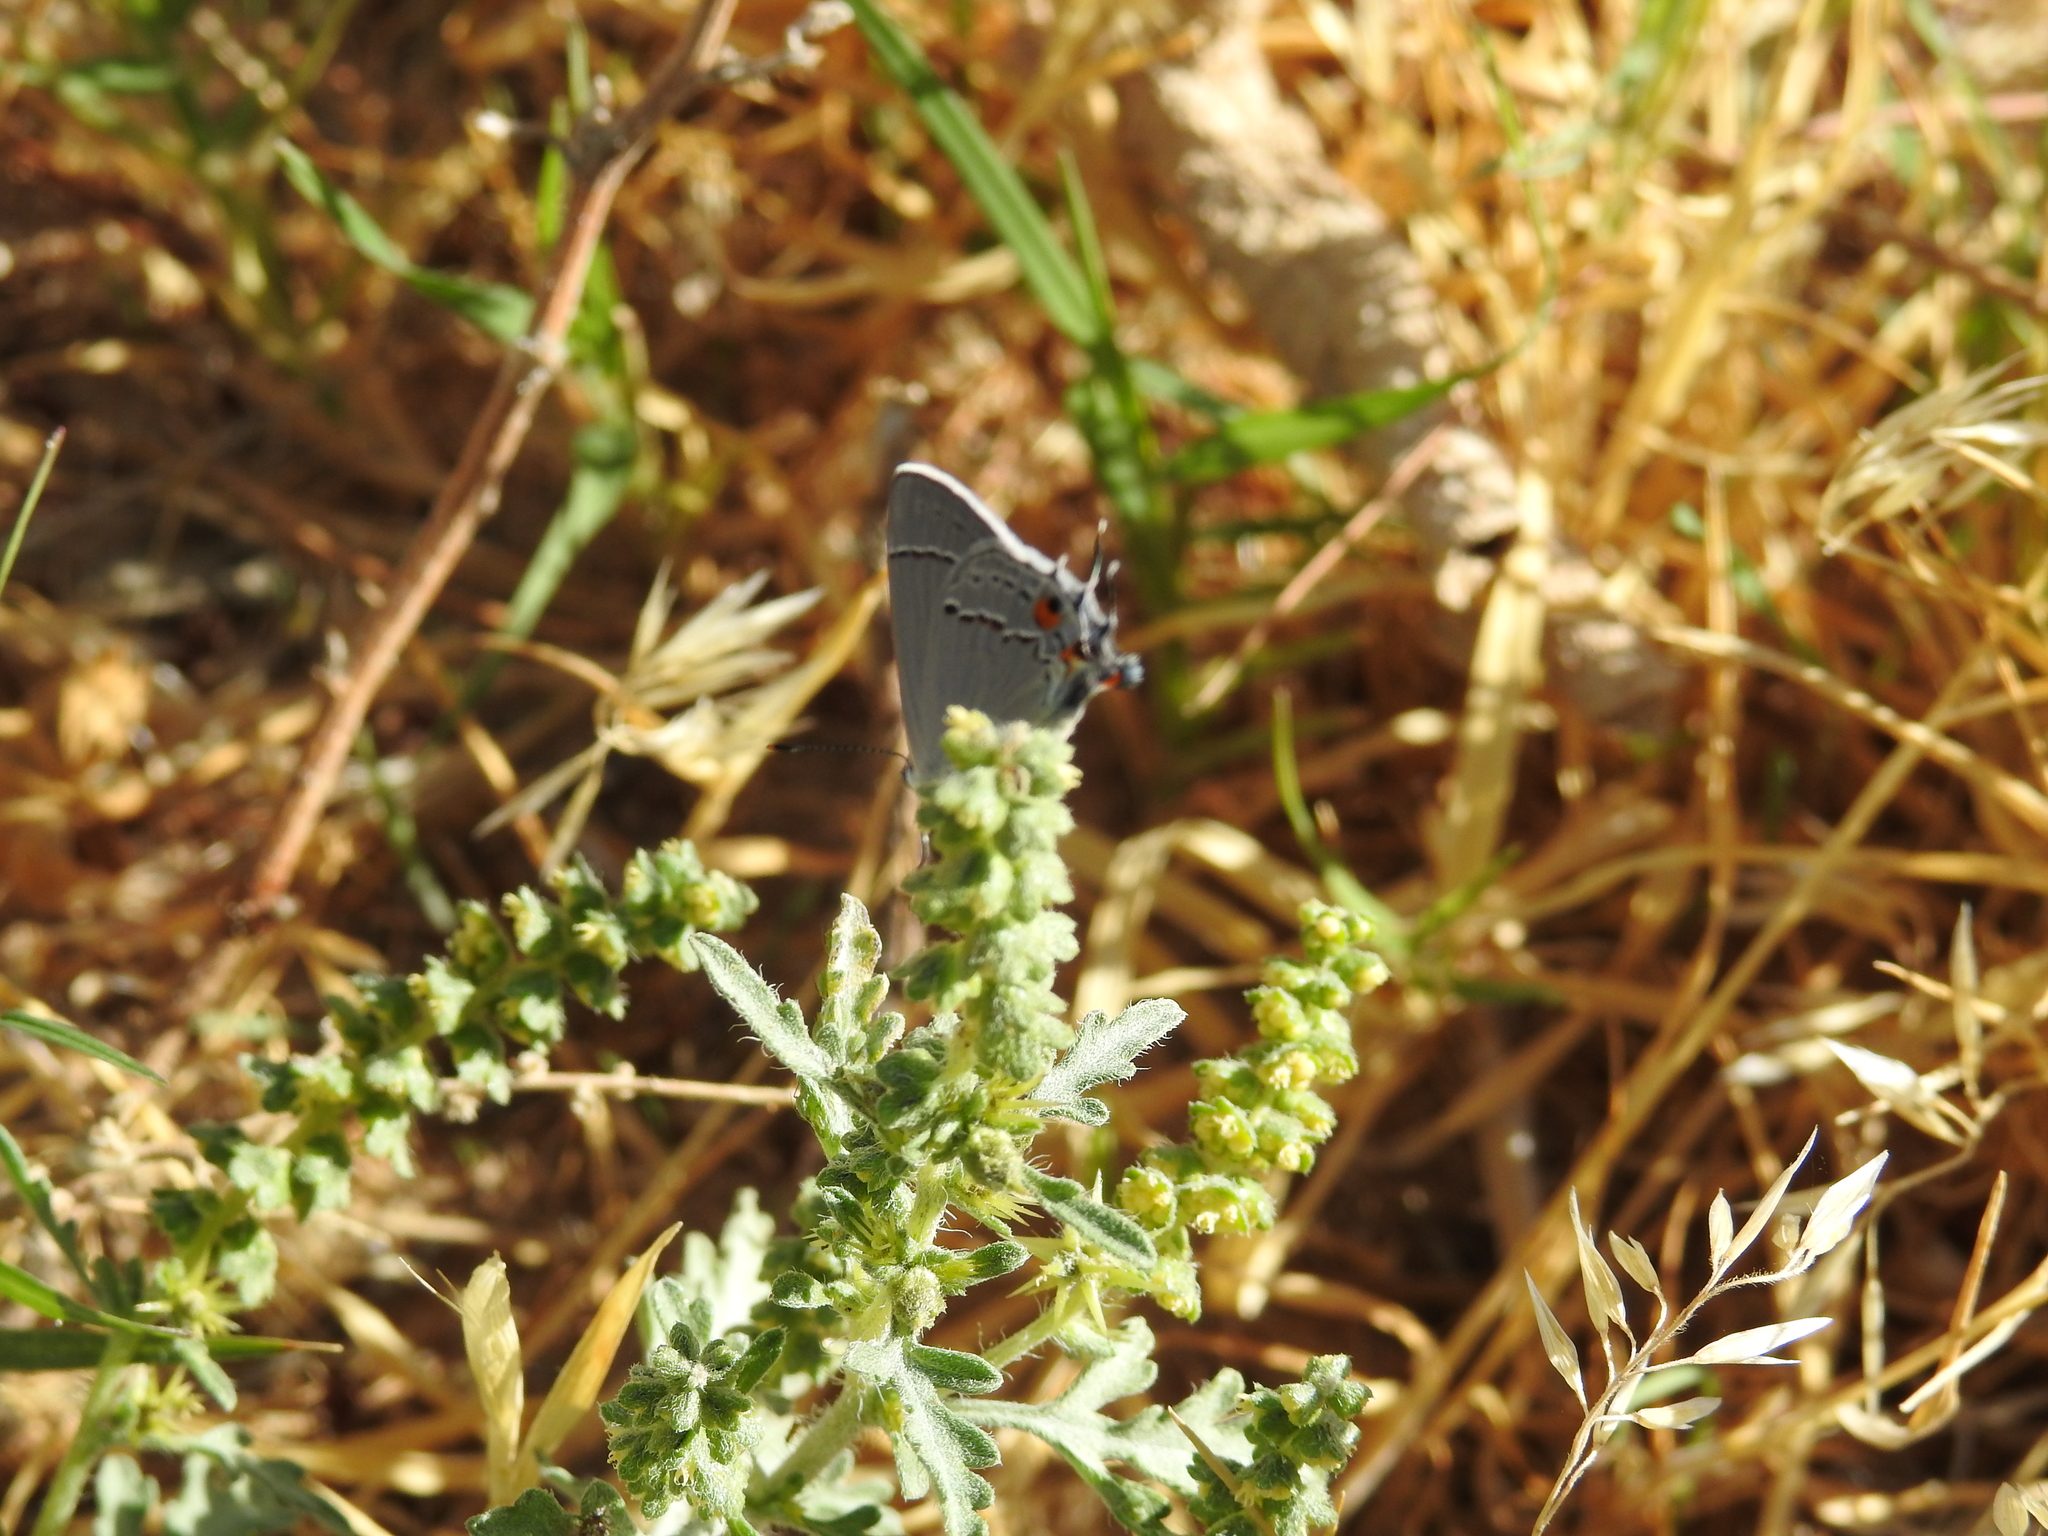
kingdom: Animalia
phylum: Arthropoda
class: Insecta
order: Lepidoptera
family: Lycaenidae
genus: Strymon
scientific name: Strymon melinus
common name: Gray hairstreak
